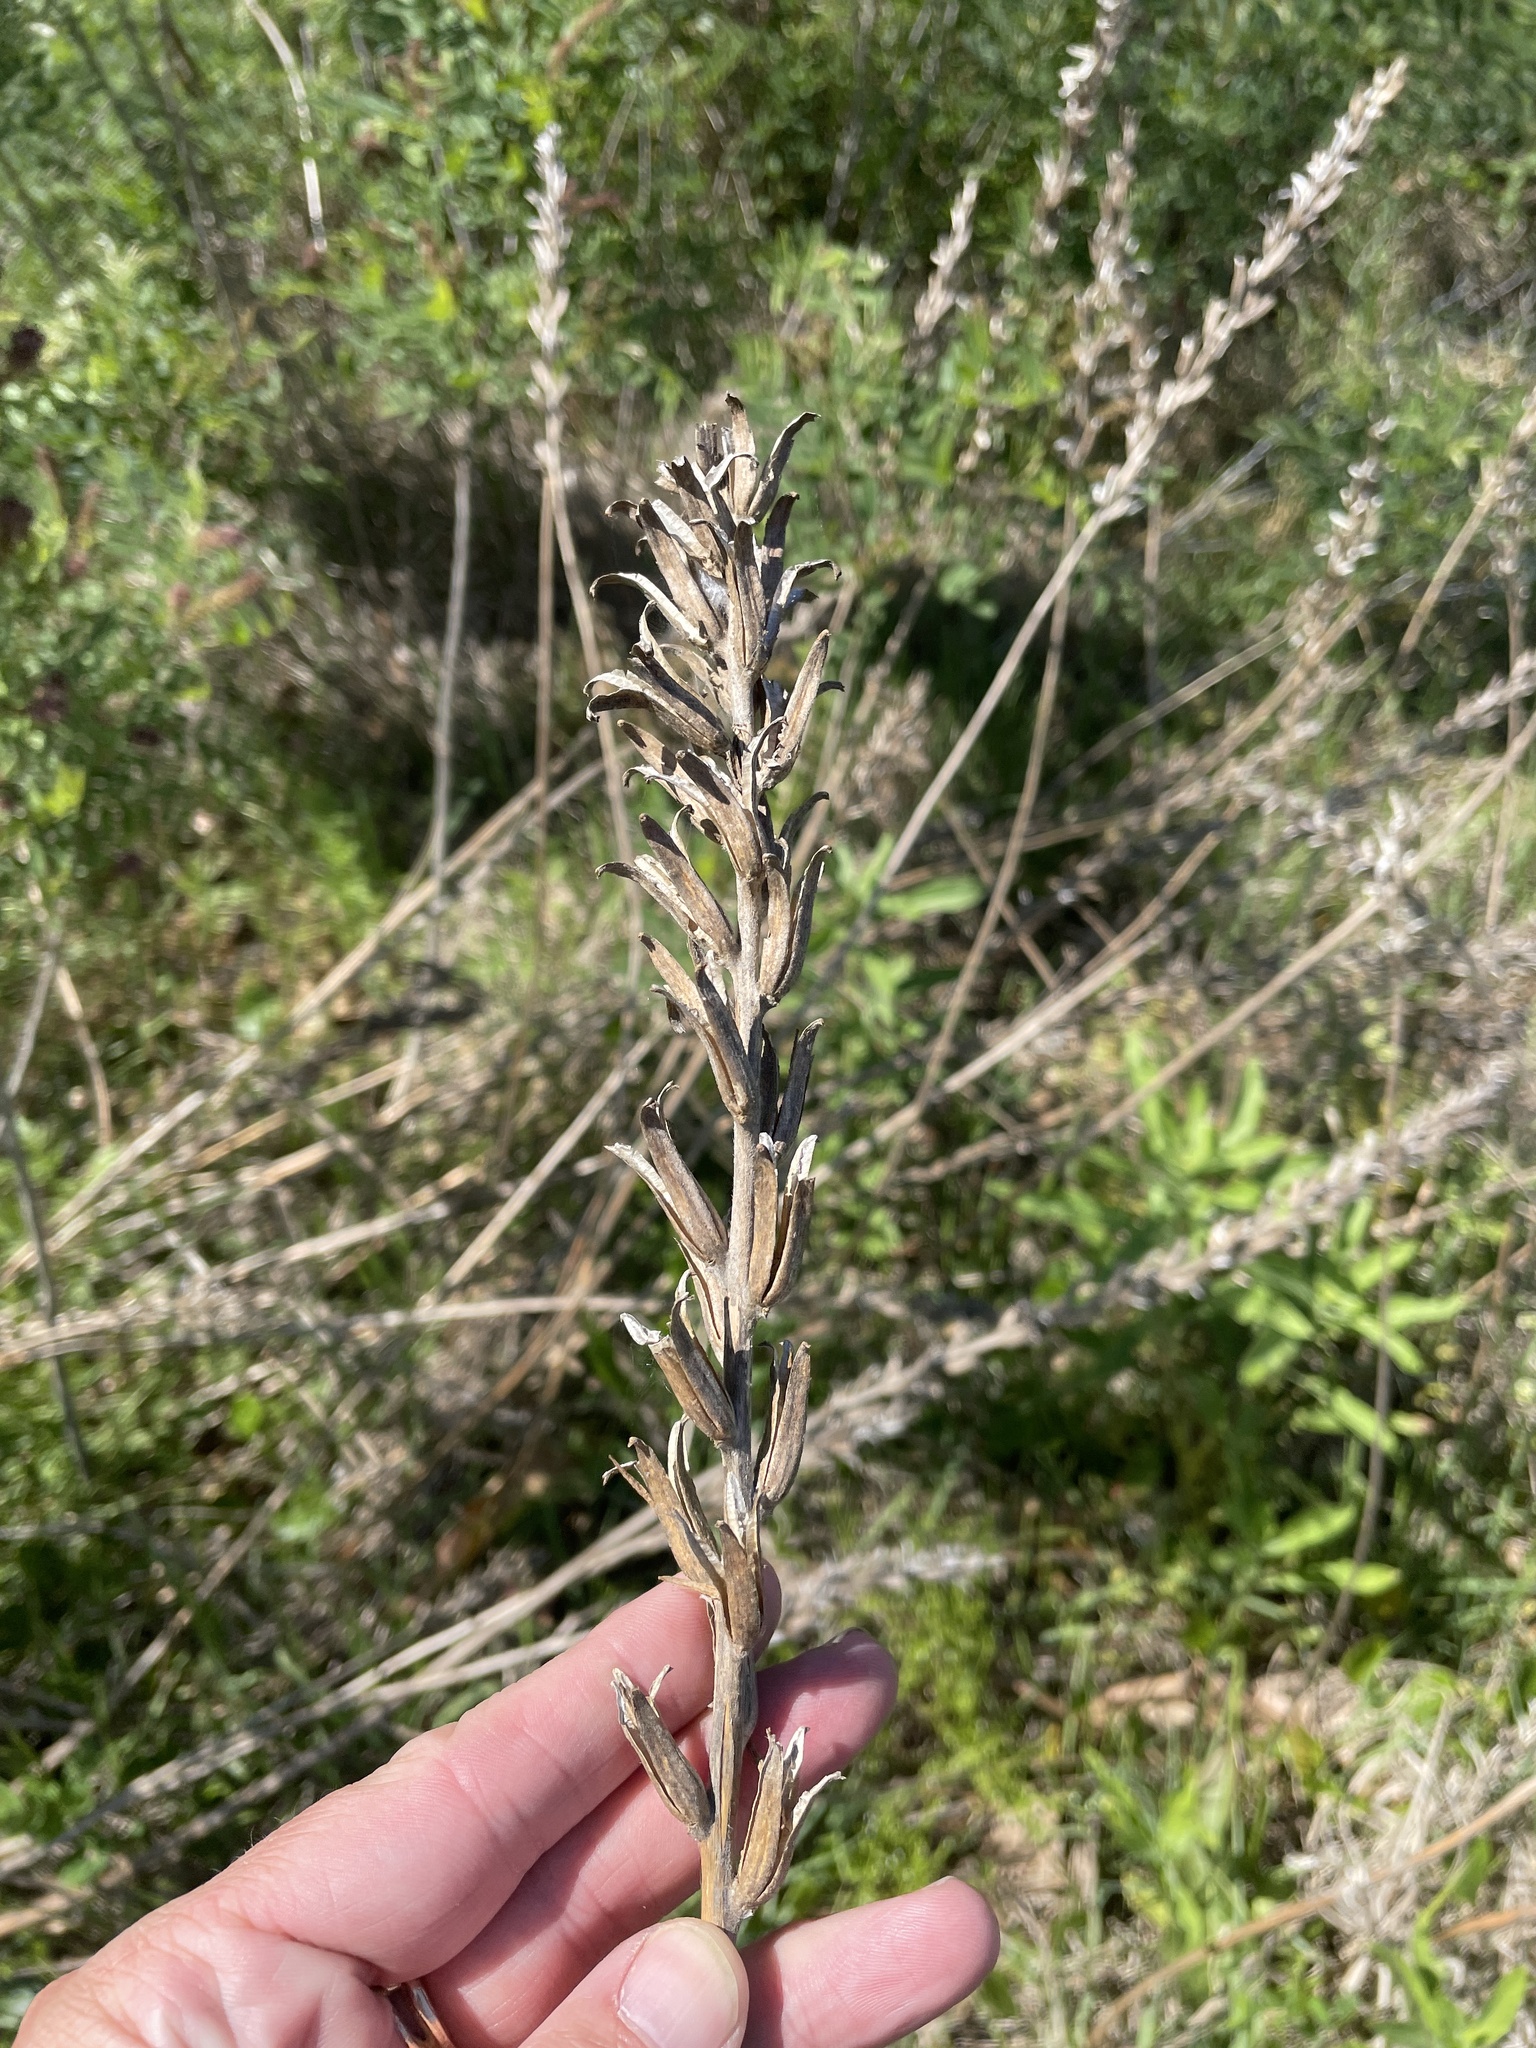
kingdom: Plantae
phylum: Tracheophyta
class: Magnoliopsida
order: Myrtales
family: Onagraceae
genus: Oenothera
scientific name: Oenothera rhombipetala
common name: Four-points evening-primrose
